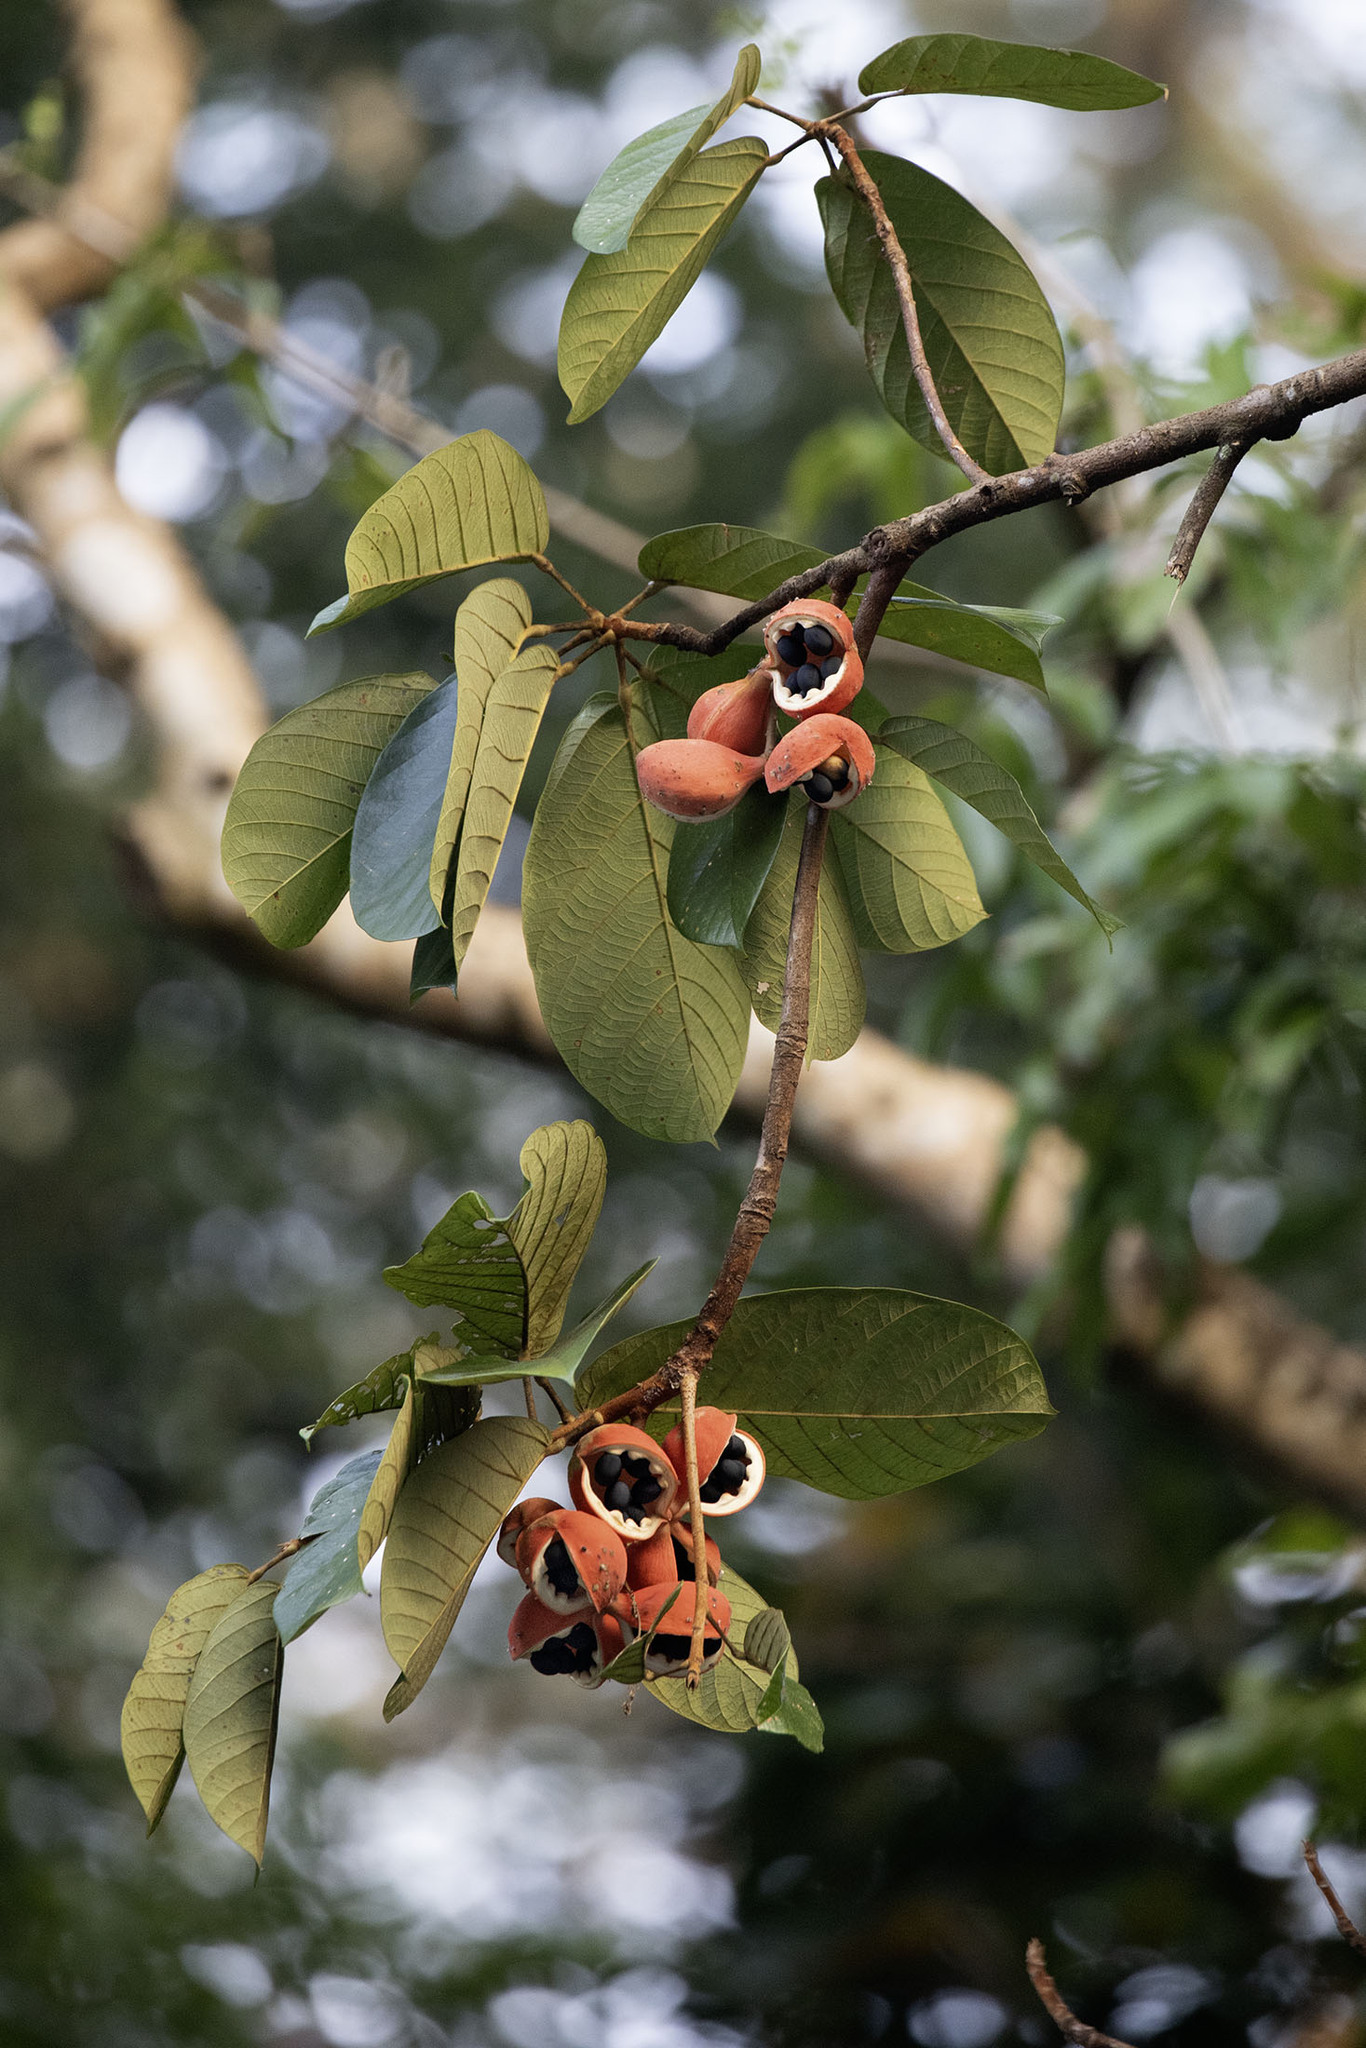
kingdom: Plantae
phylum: Tracheophyta
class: Magnoliopsida
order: Malvales
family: Malvaceae
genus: Sterculia
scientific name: Sterculia cordata
